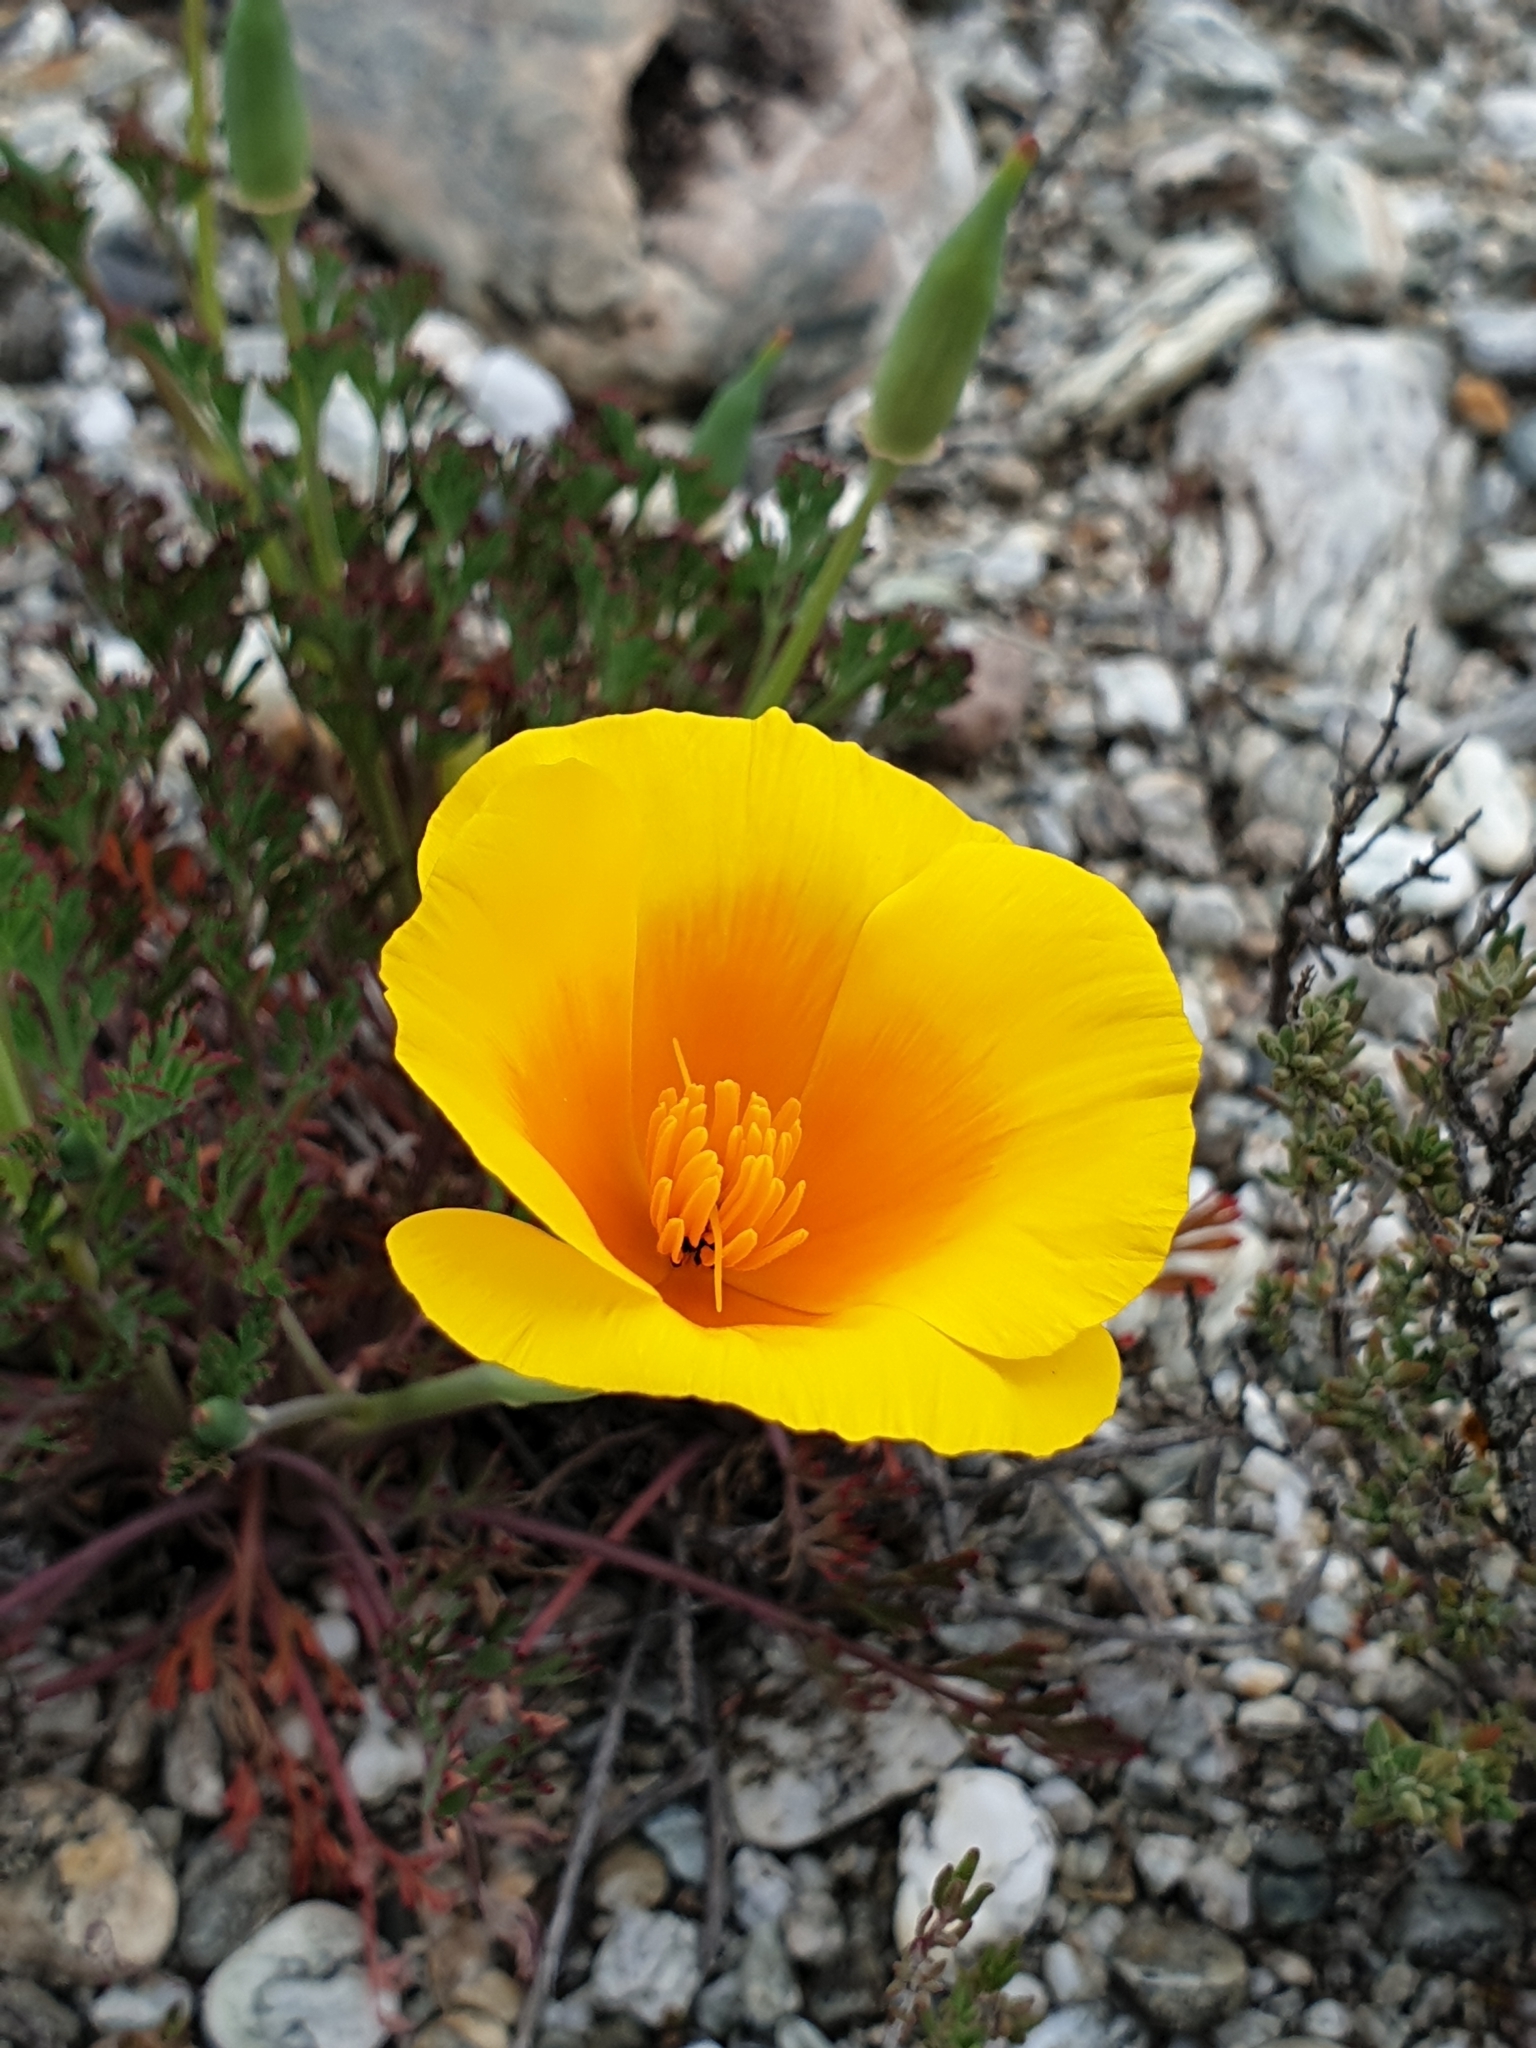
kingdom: Plantae
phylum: Tracheophyta
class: Magnoliopsida
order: Ranunculales
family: Papaveraceae
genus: Eschscholzia
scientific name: Eschscholzia californica
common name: California poppy
